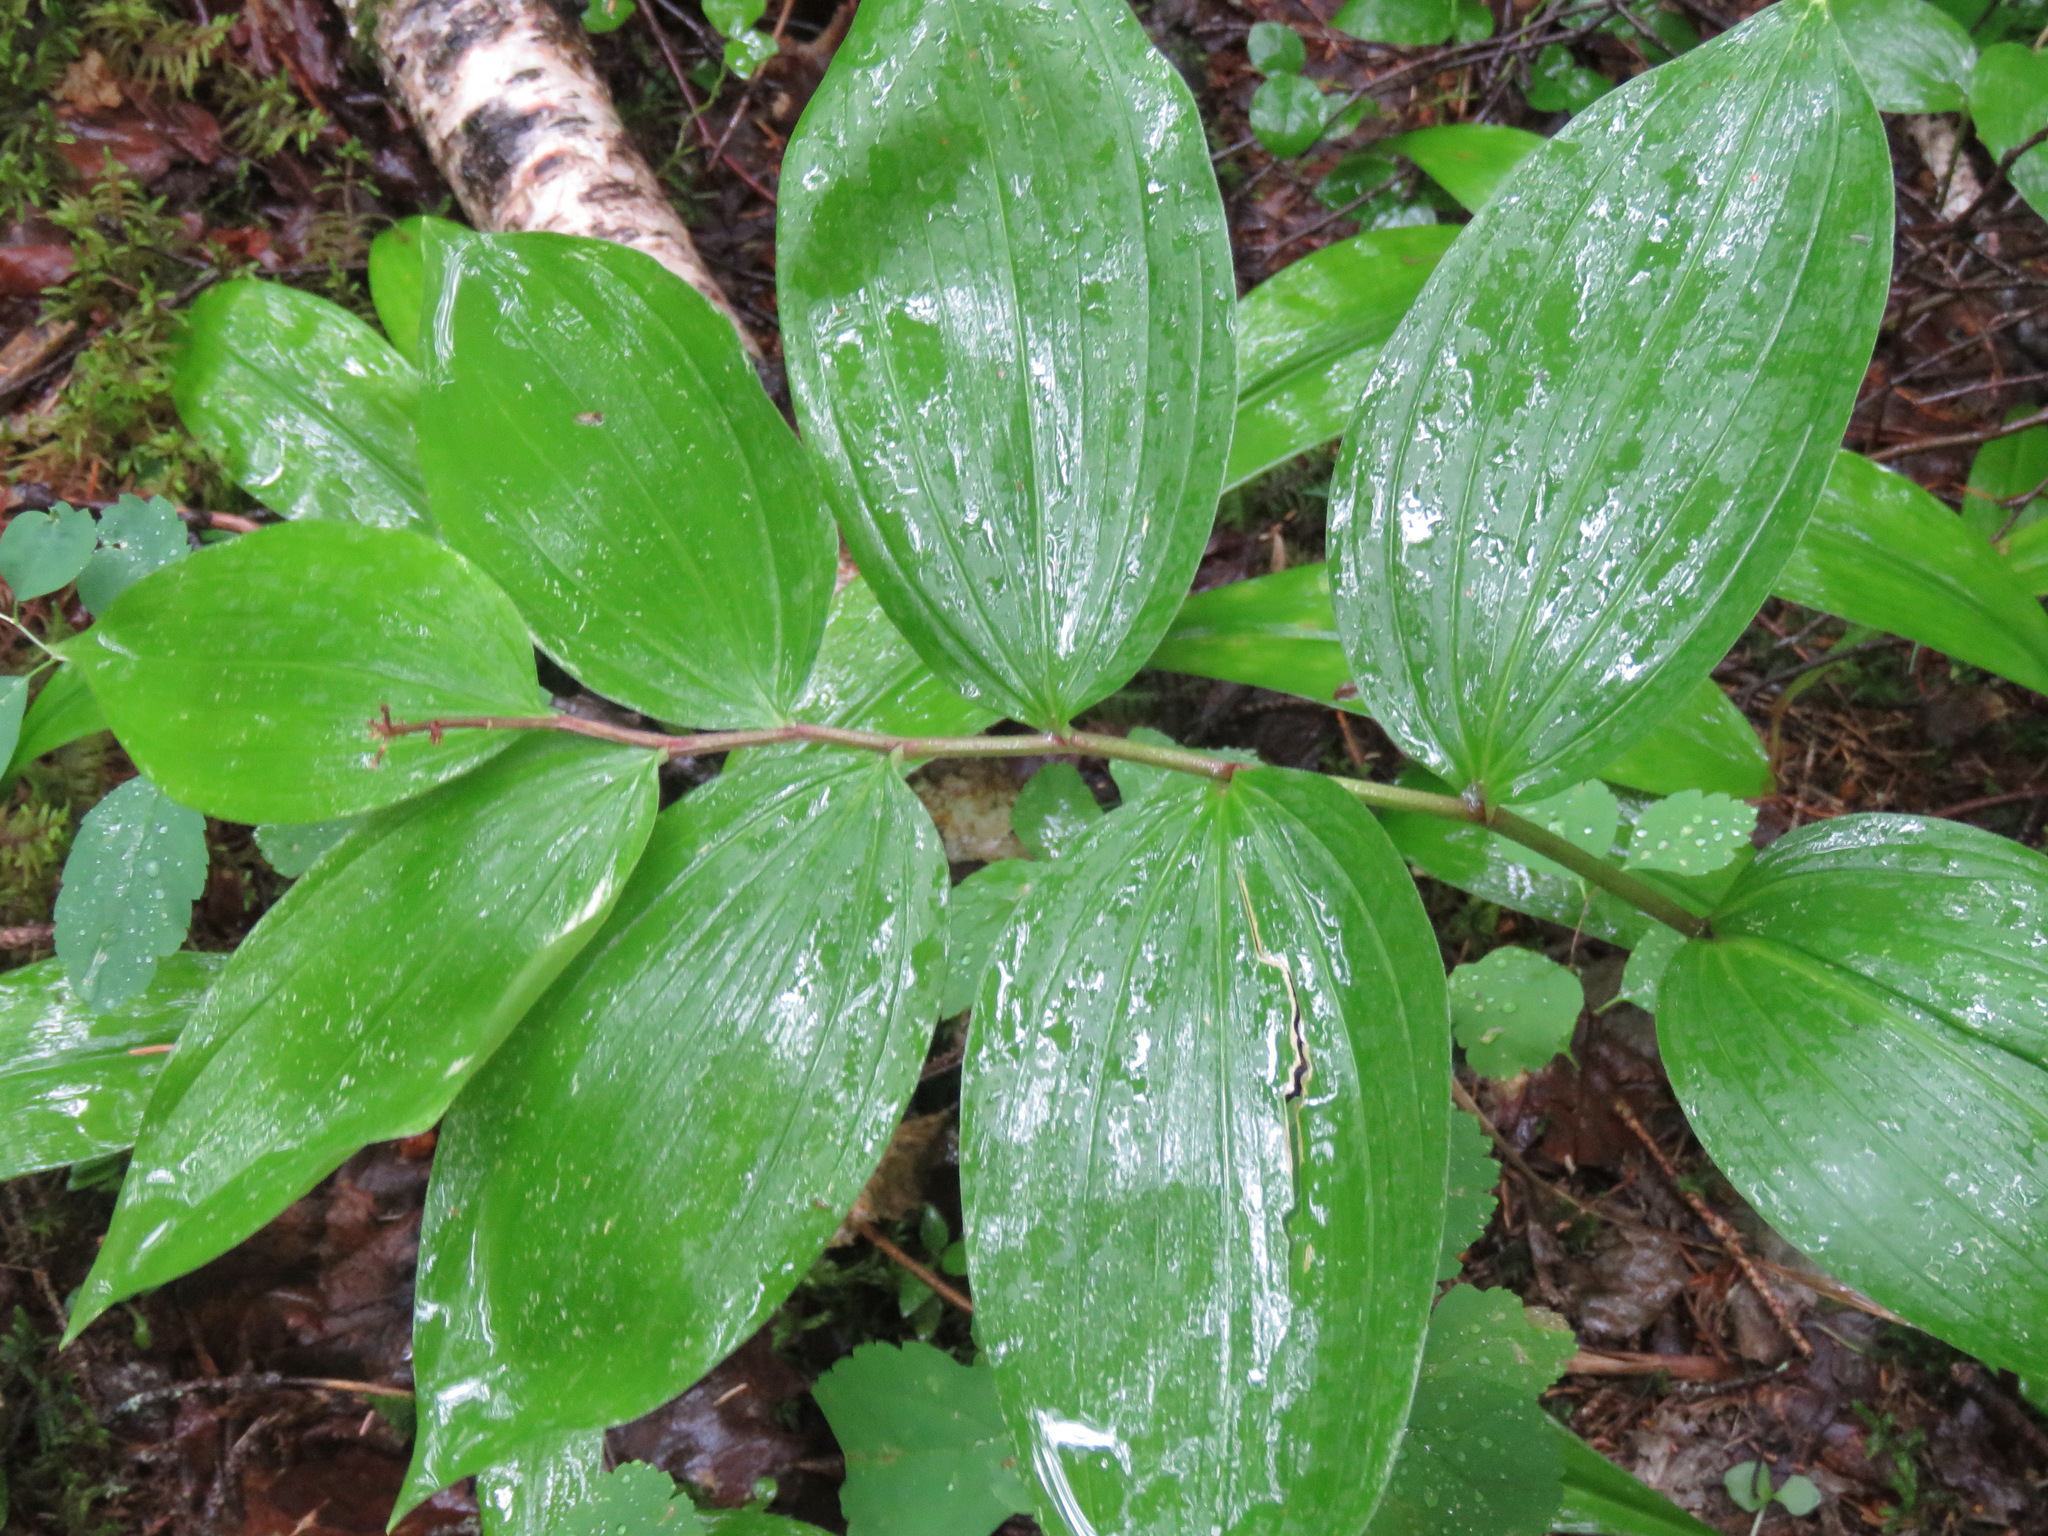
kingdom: Plantae
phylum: Tracheophyta
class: Liliopsida
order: Asparagales
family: Asparagaceae
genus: Maianthemum
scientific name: Maianthemum racemosum
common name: False spikenard
